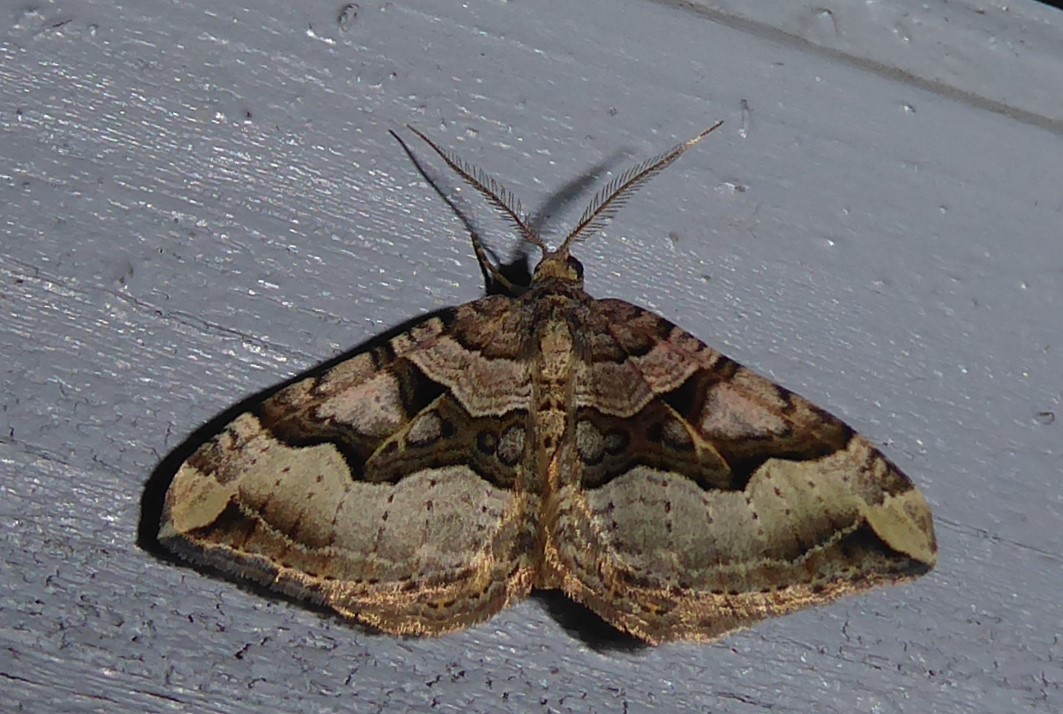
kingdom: Animalia
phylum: Arthropoda
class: Insecta
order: Lepidoptera
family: Geometridae
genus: Xanthorhoe
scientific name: Xanthorhoe semifissata
